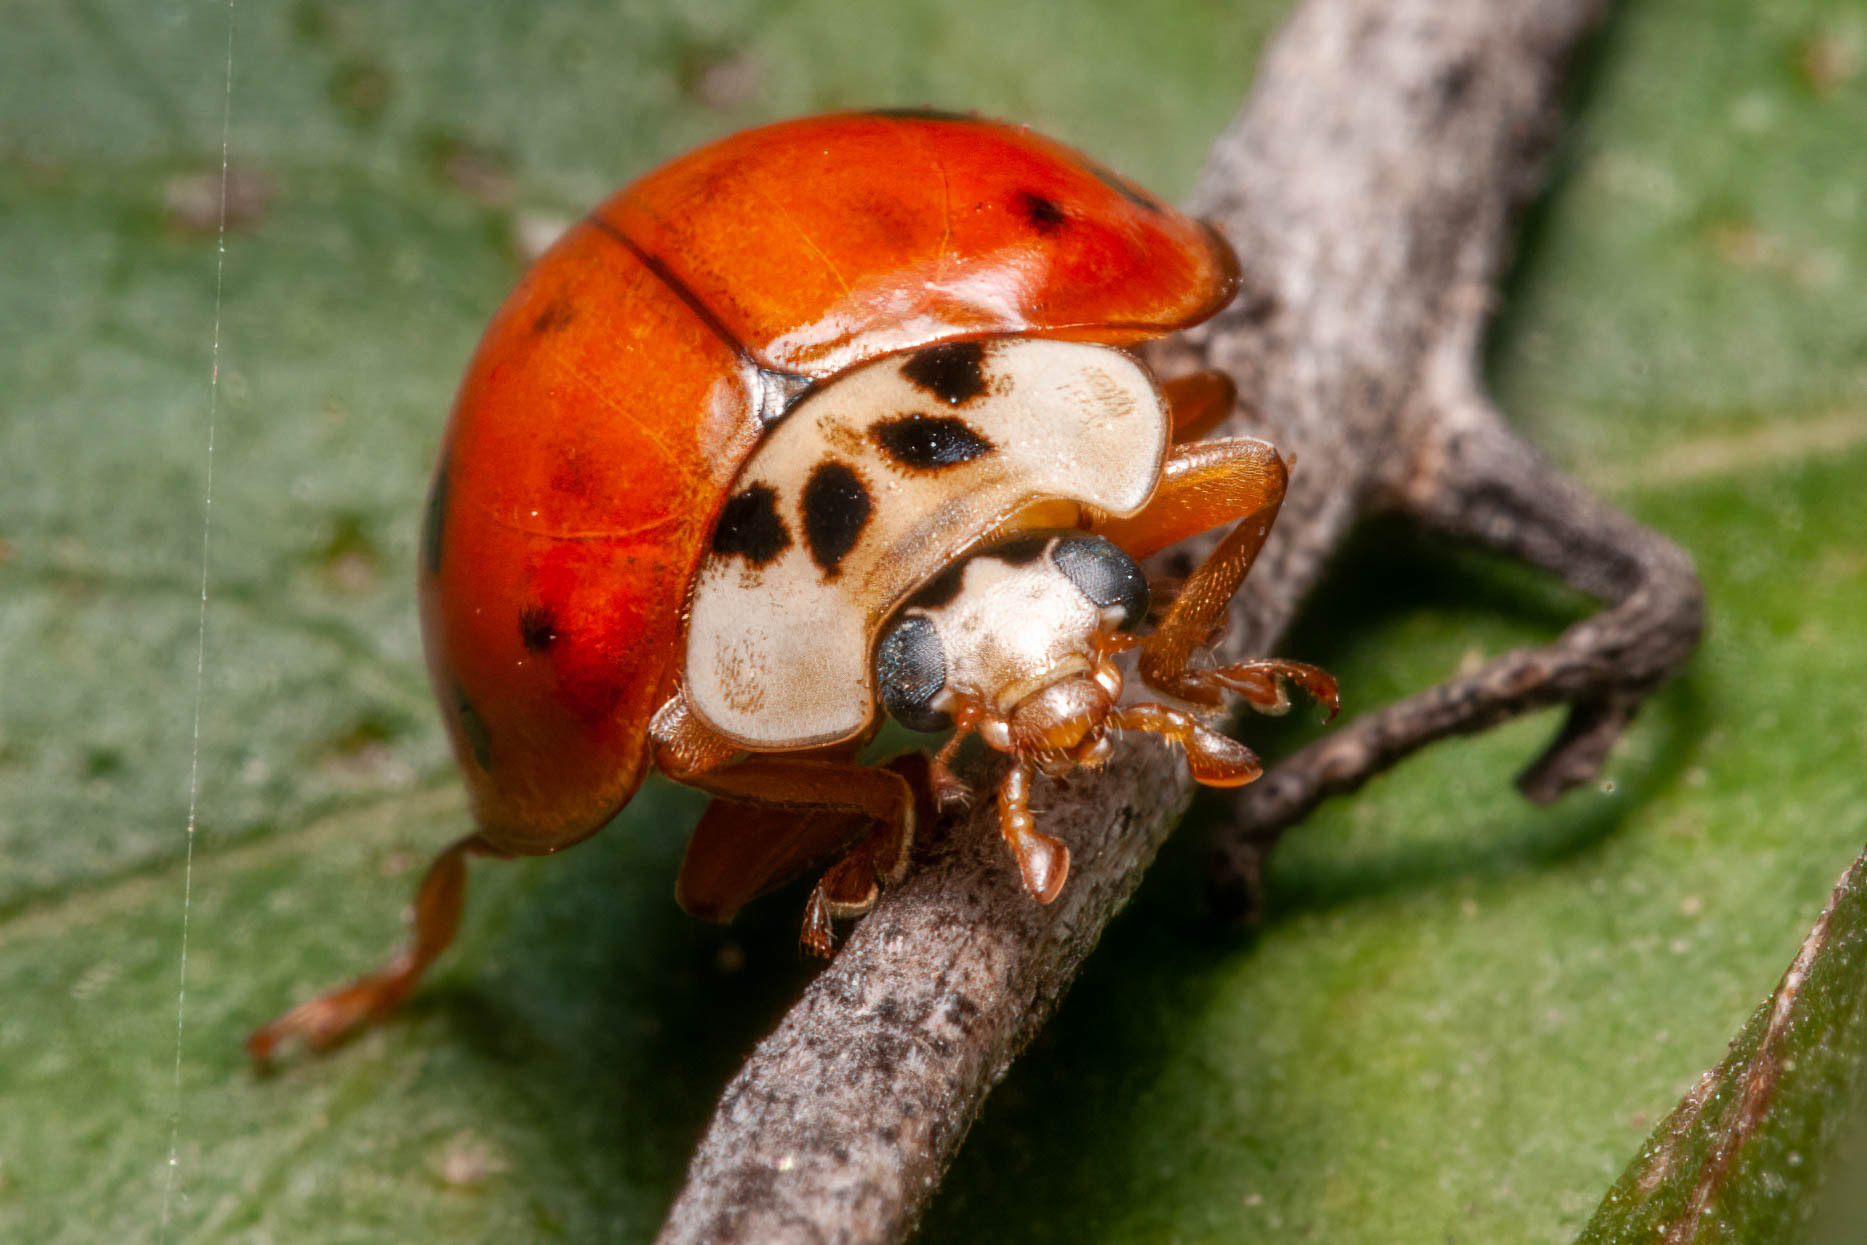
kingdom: Animalia
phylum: Arthropoda
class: Insecta
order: Coleoptera
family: Coccinellidae
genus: Harmonia
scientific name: Harmonia axyridis
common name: Harlequin ladybird
